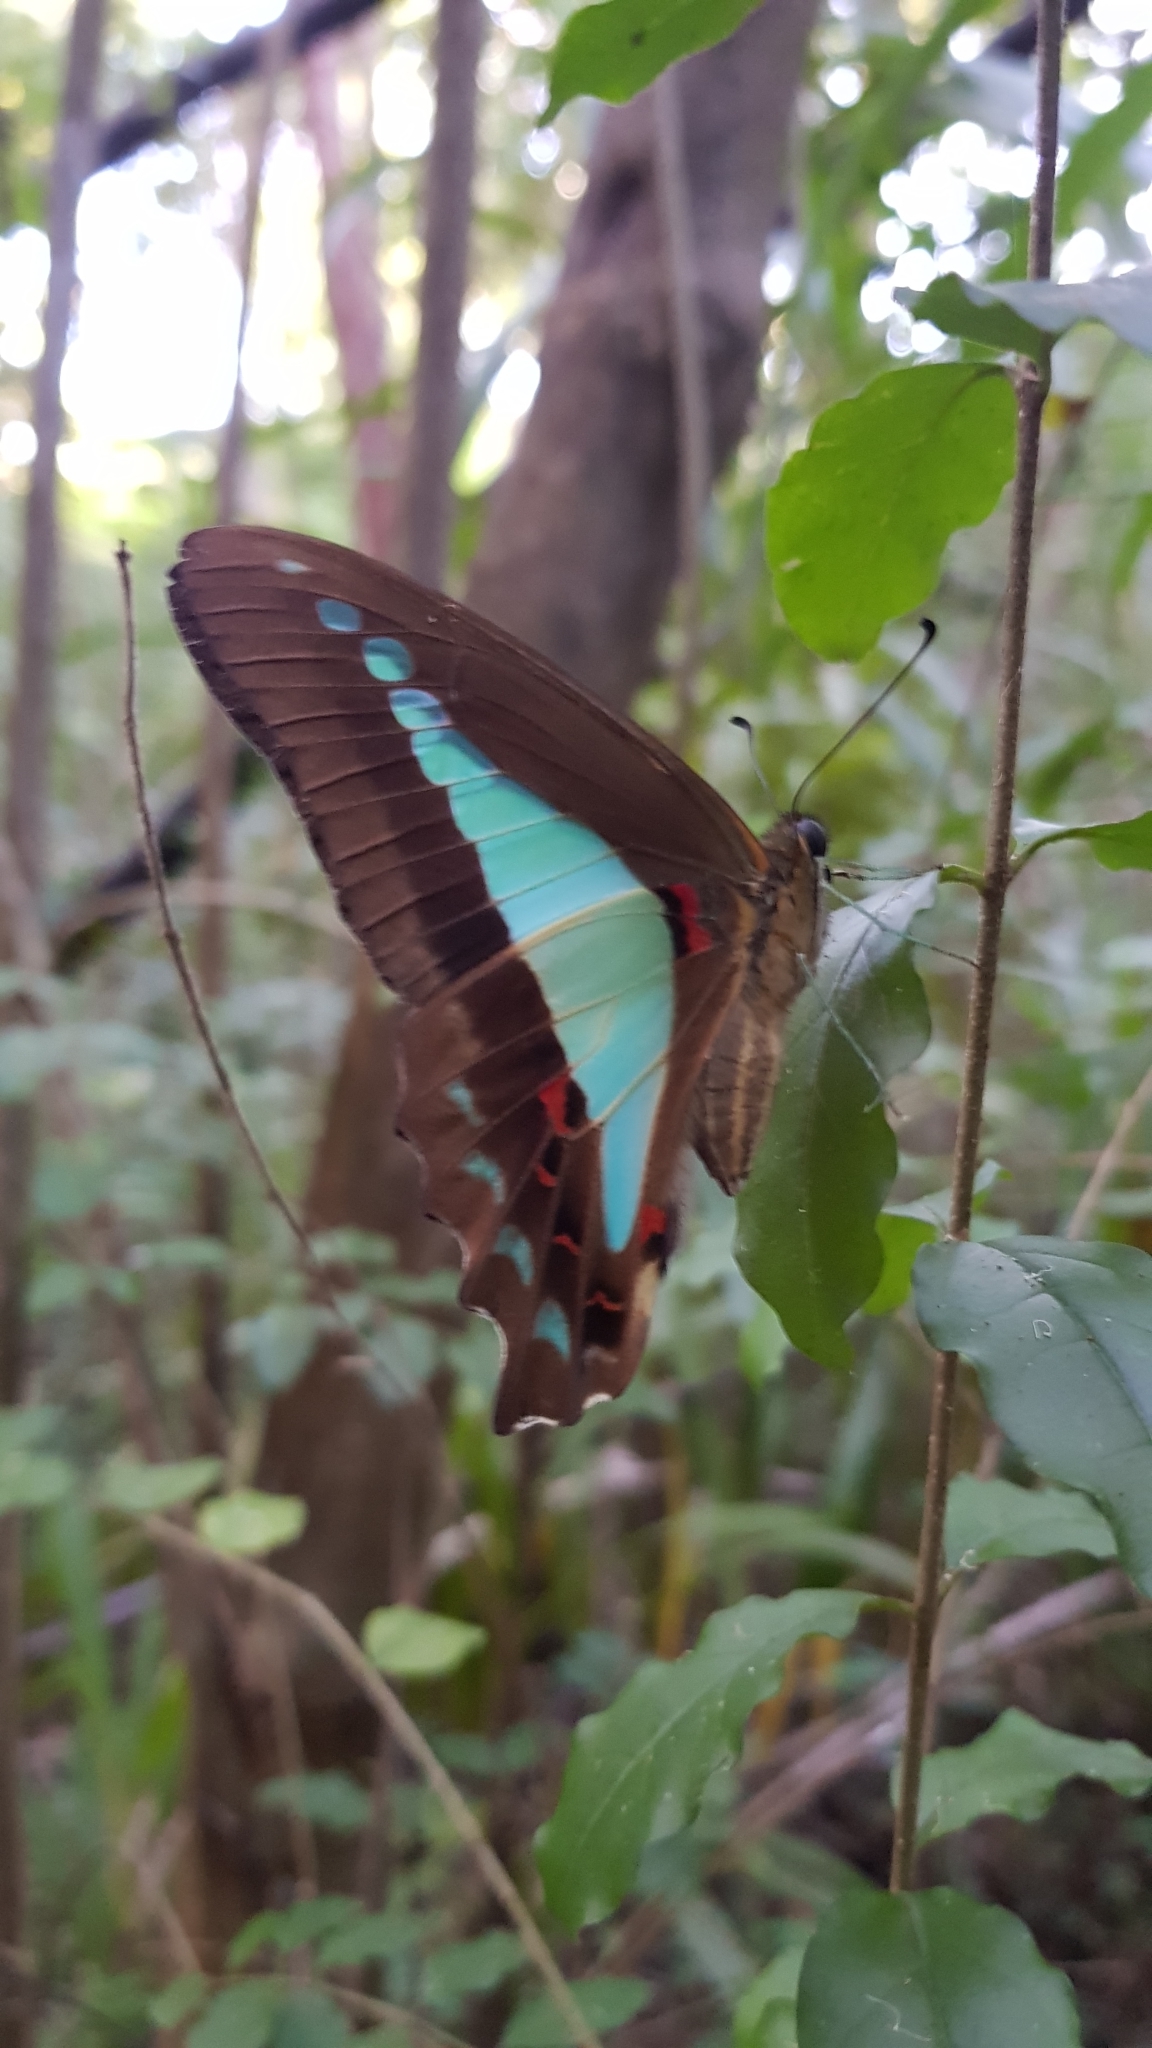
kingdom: Animalia
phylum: Arthropoda
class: Insecta
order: Lepidoptera
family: Papilionidae
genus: Graphium
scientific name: Graphium
